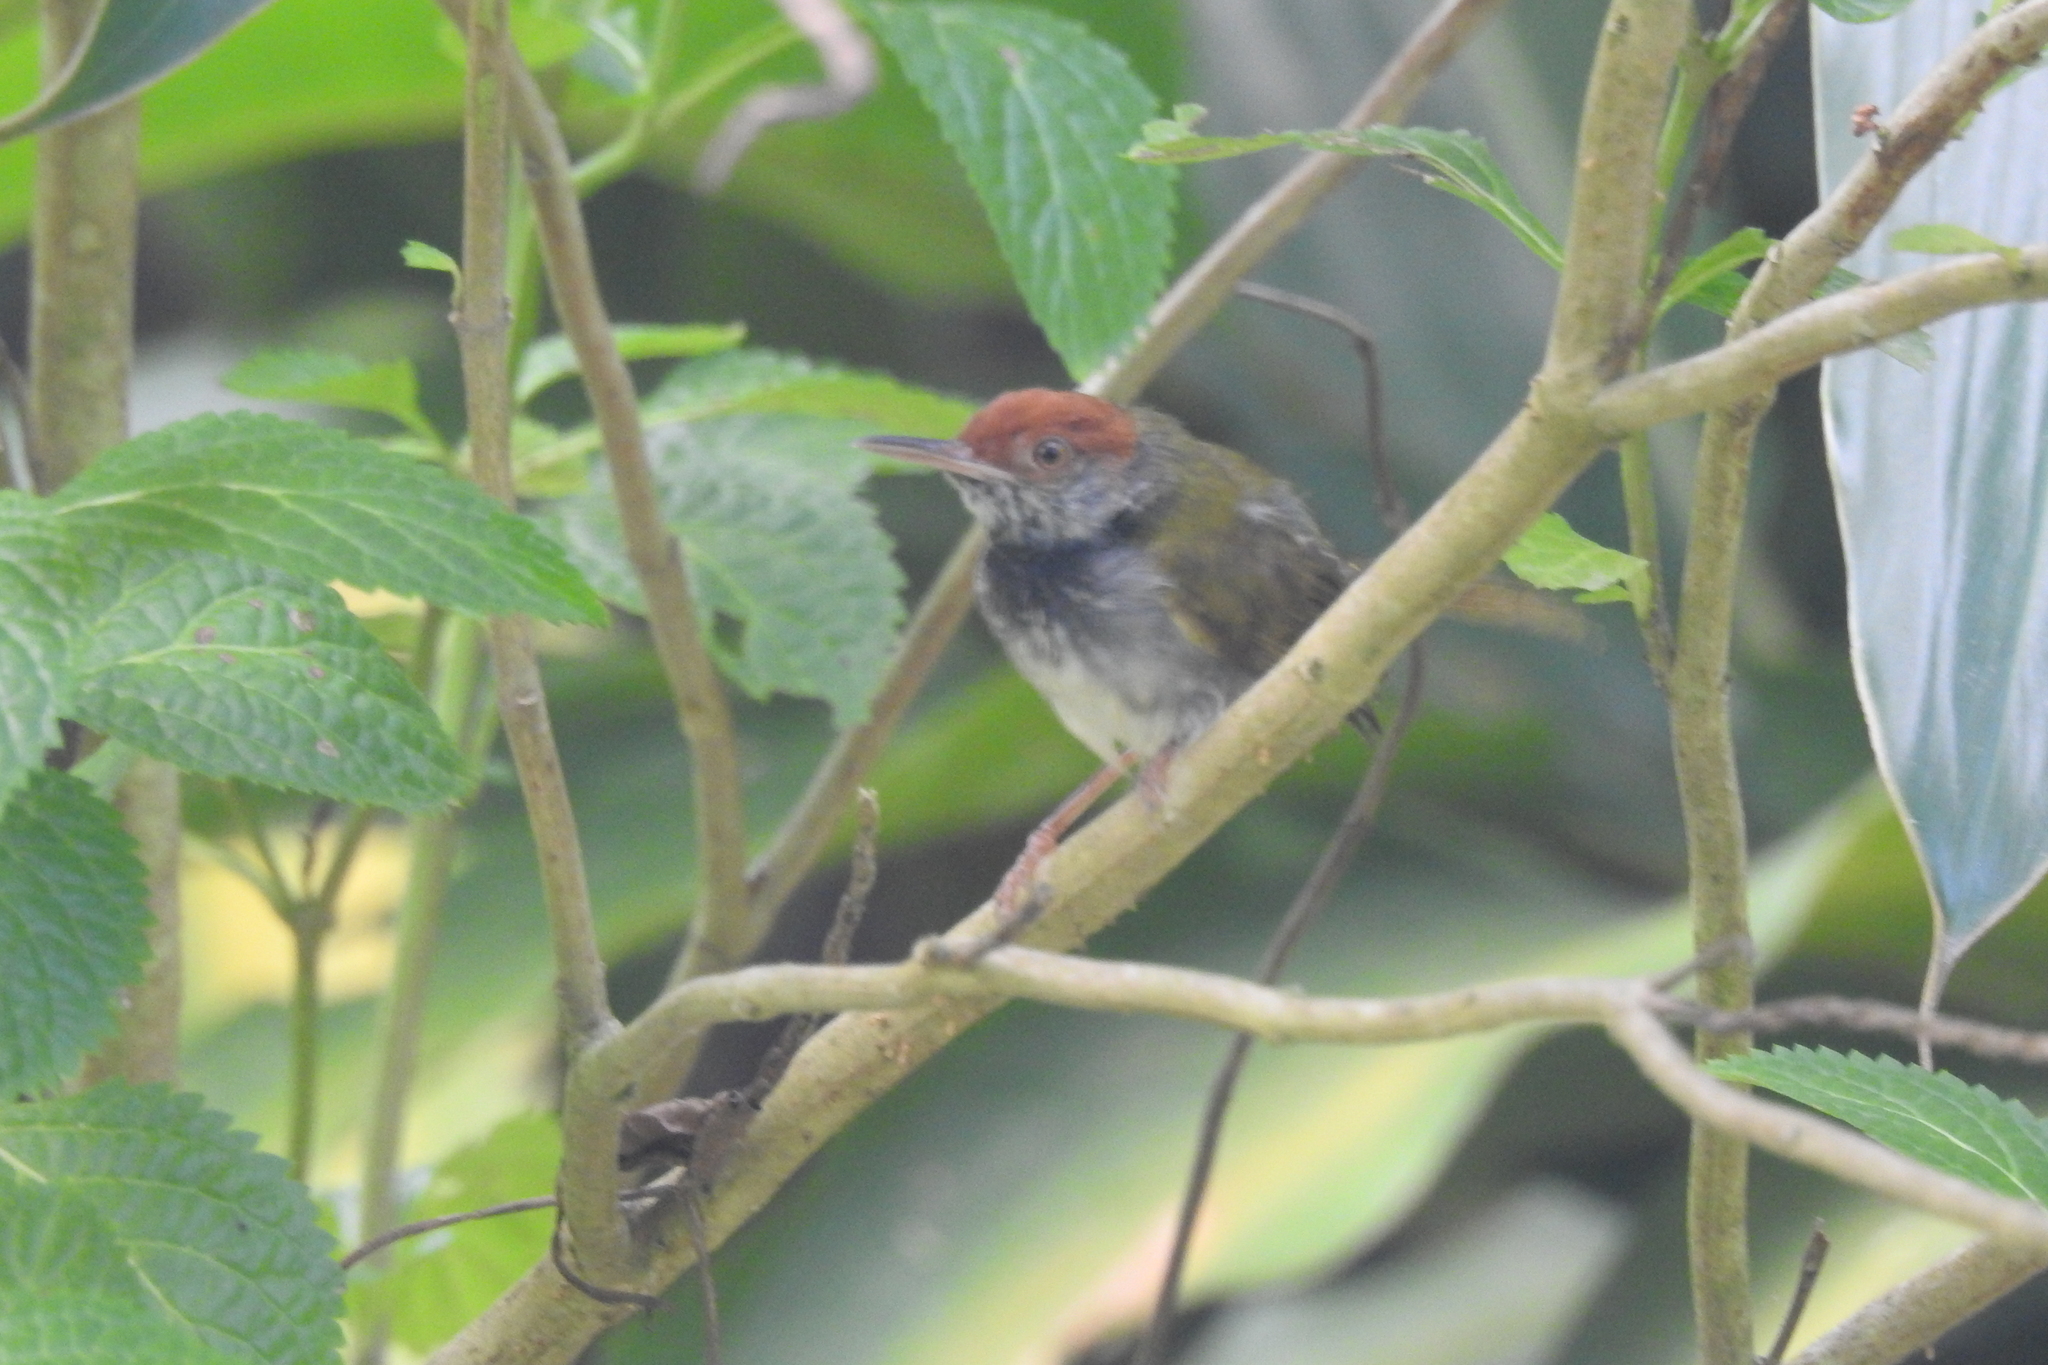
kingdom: Animalia
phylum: Chordata
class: Aves
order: Passeriformes
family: Cisticolidae
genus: Orthotomus
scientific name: Orthotomus atrogularis
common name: Dark-necked tailorbird
